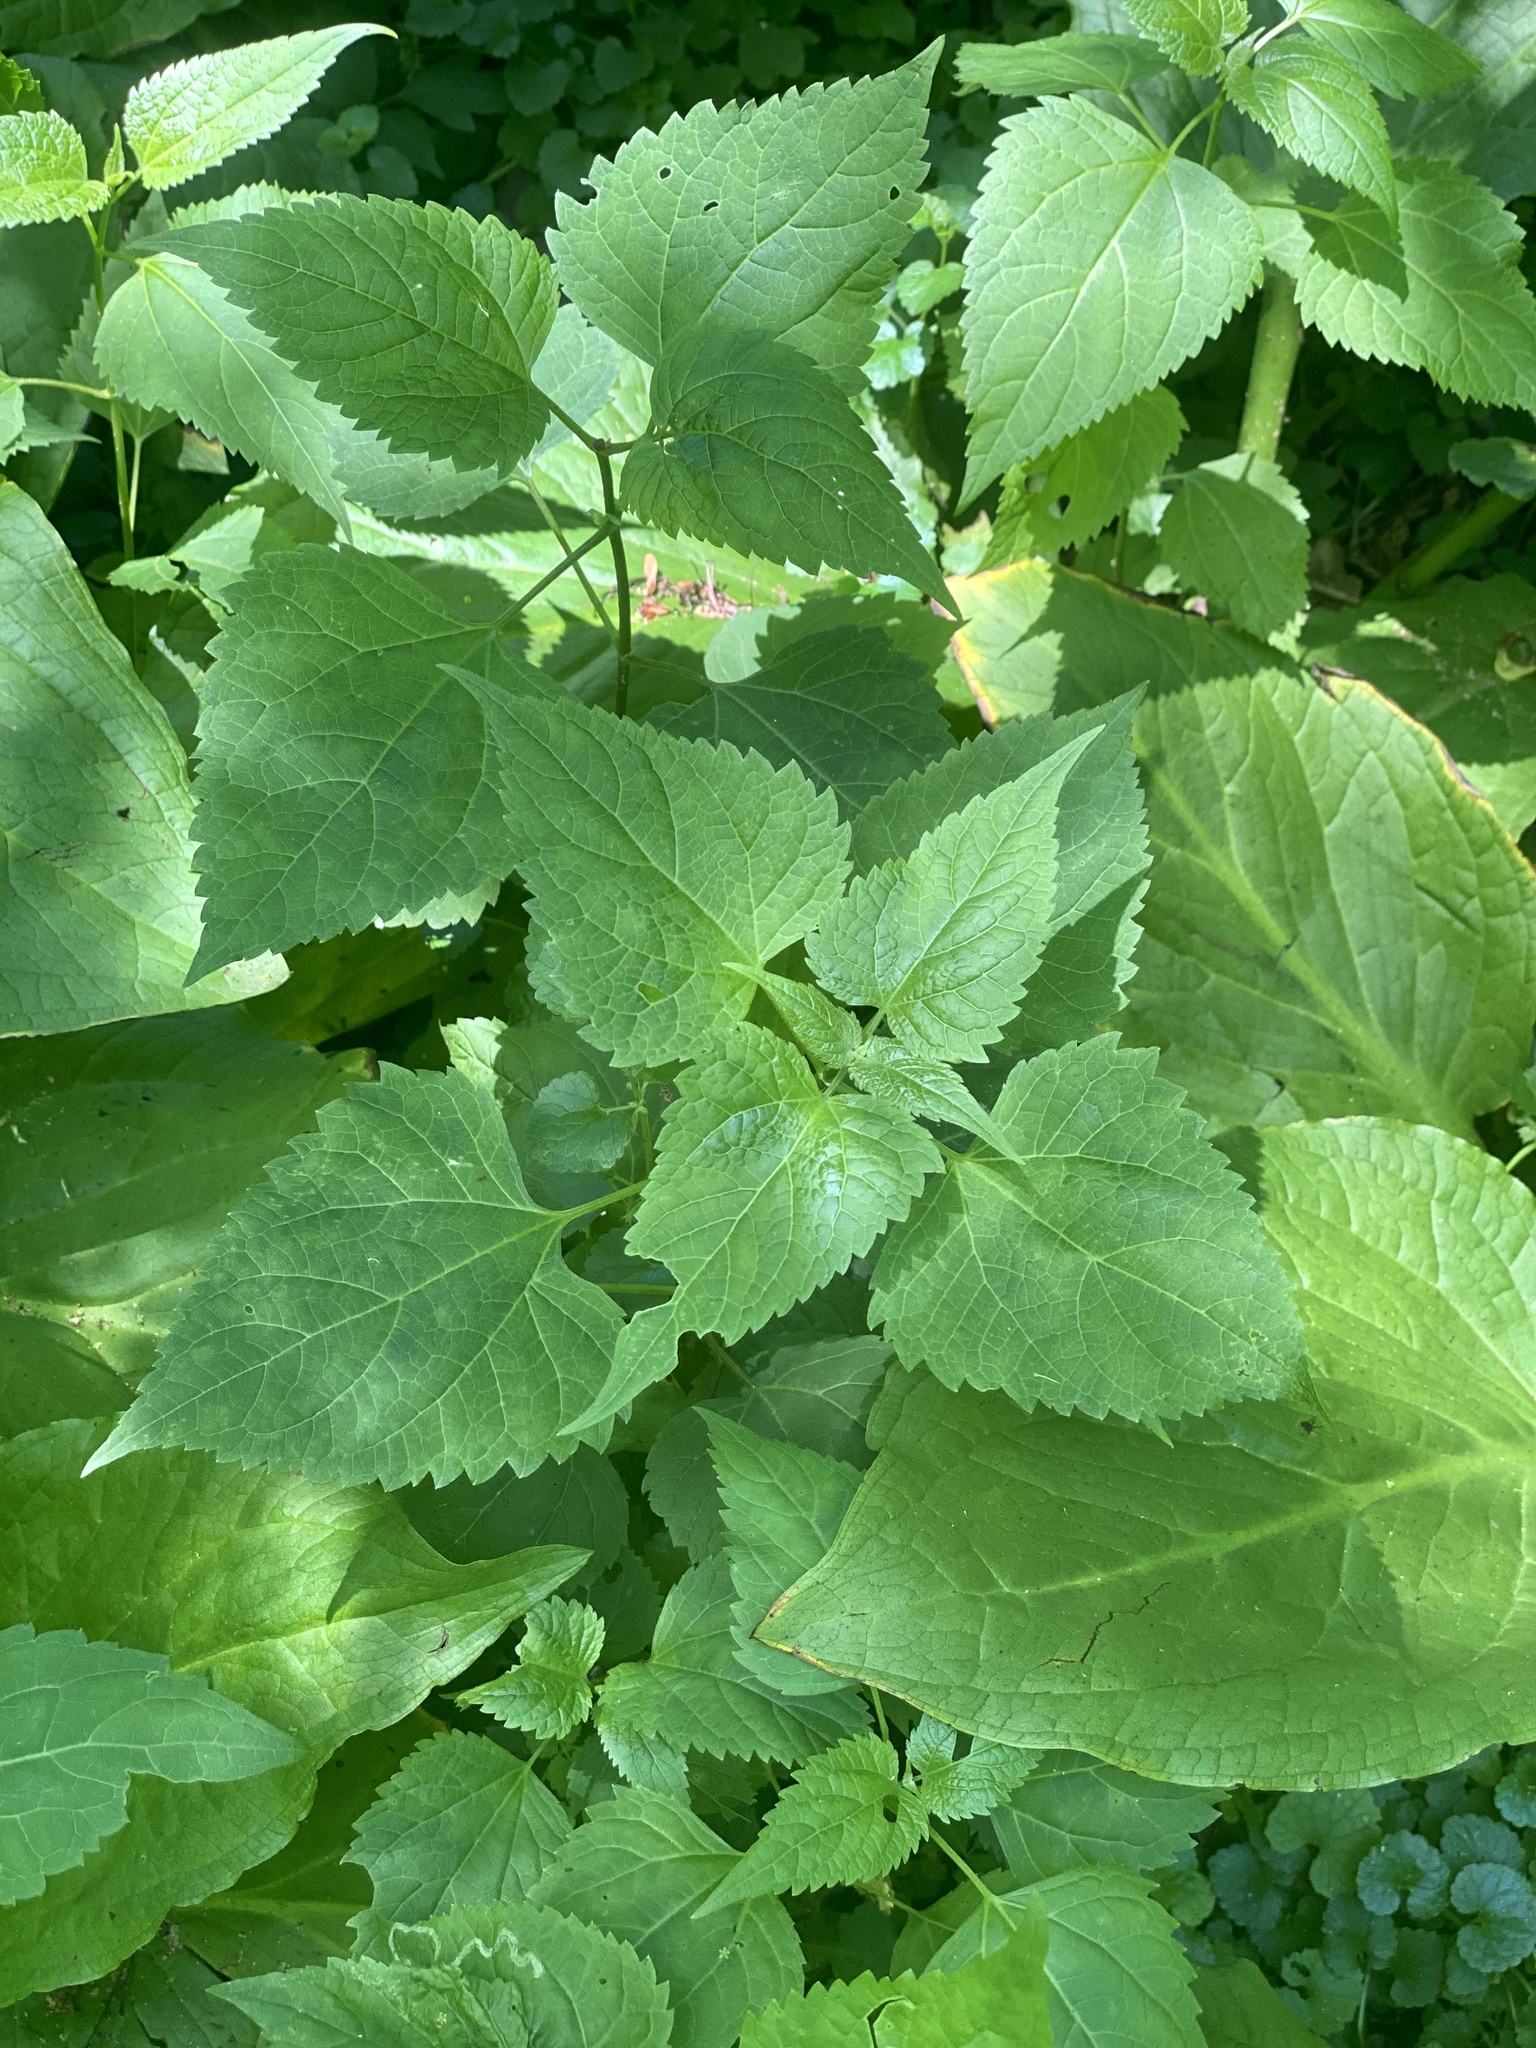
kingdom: Plantae
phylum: Tracheophyta
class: Magnoliopsida
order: Asterales
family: Asteraceae
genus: Ageratina
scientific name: Ageratina altissima
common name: White snakeroot
